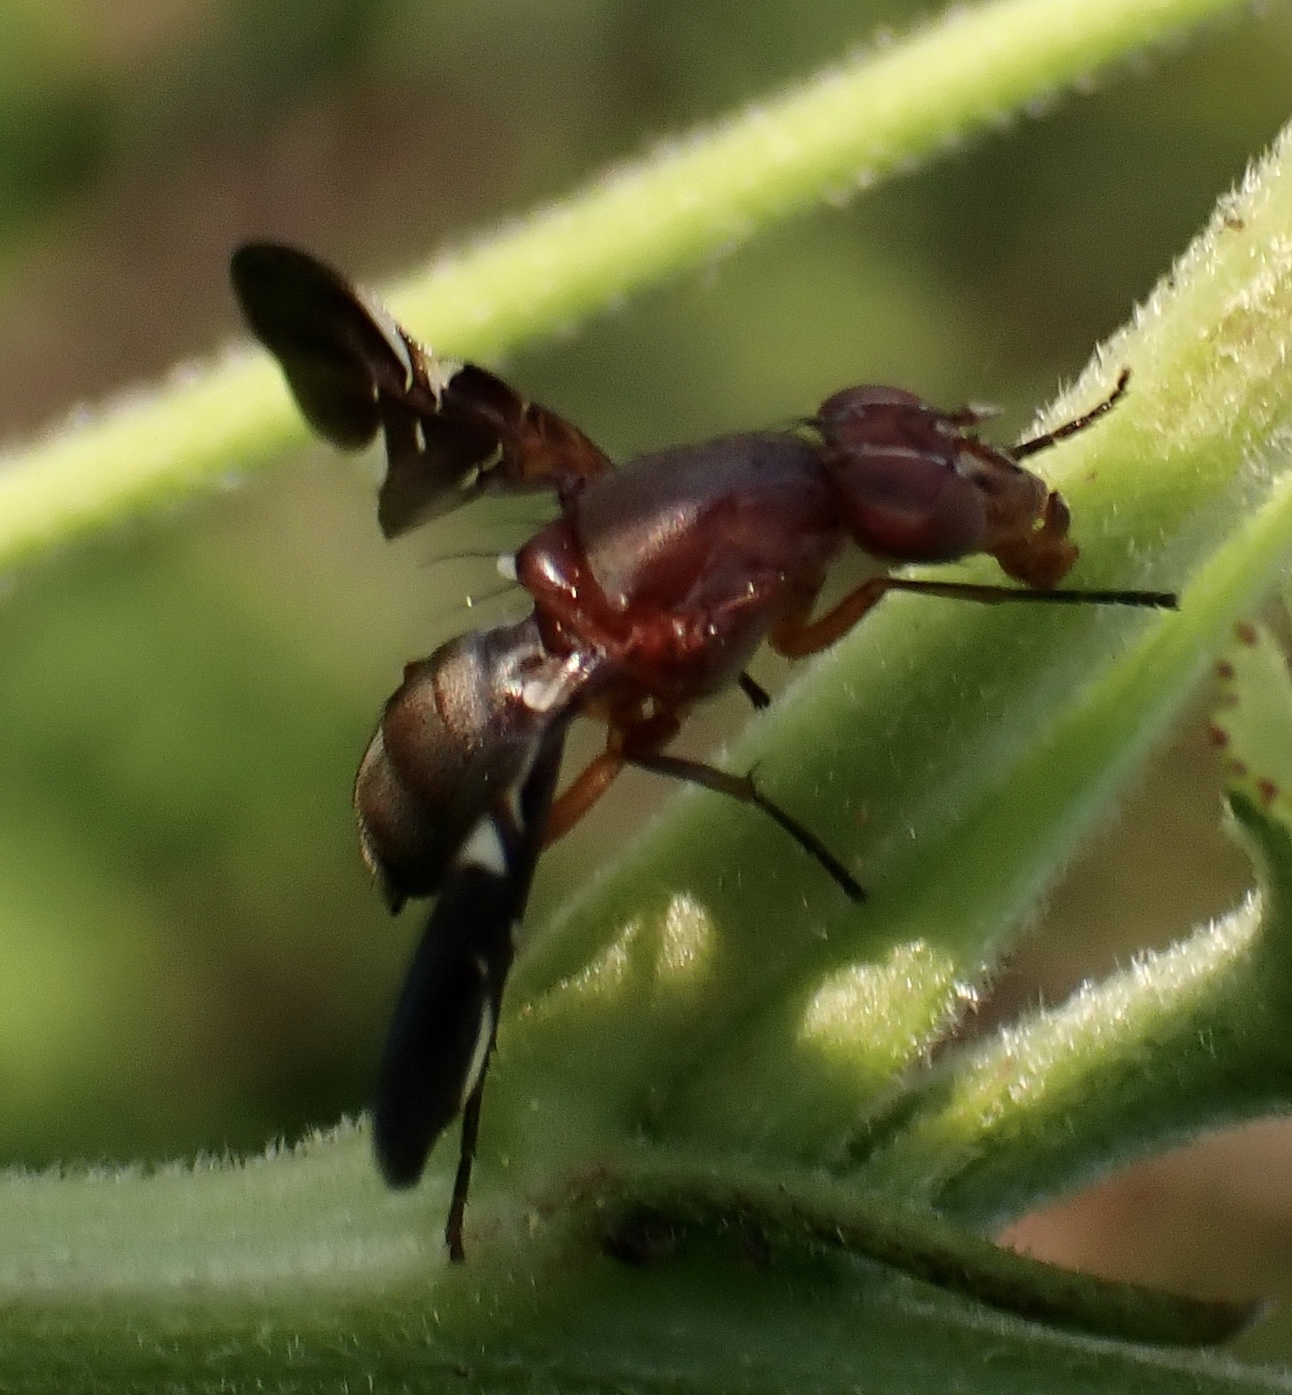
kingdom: Animalia
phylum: Arthropoda
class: Insecta
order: Diptera
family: Ulidiidae
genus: Delphinia
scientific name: Delphinia picta
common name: Common picture-winged fly
